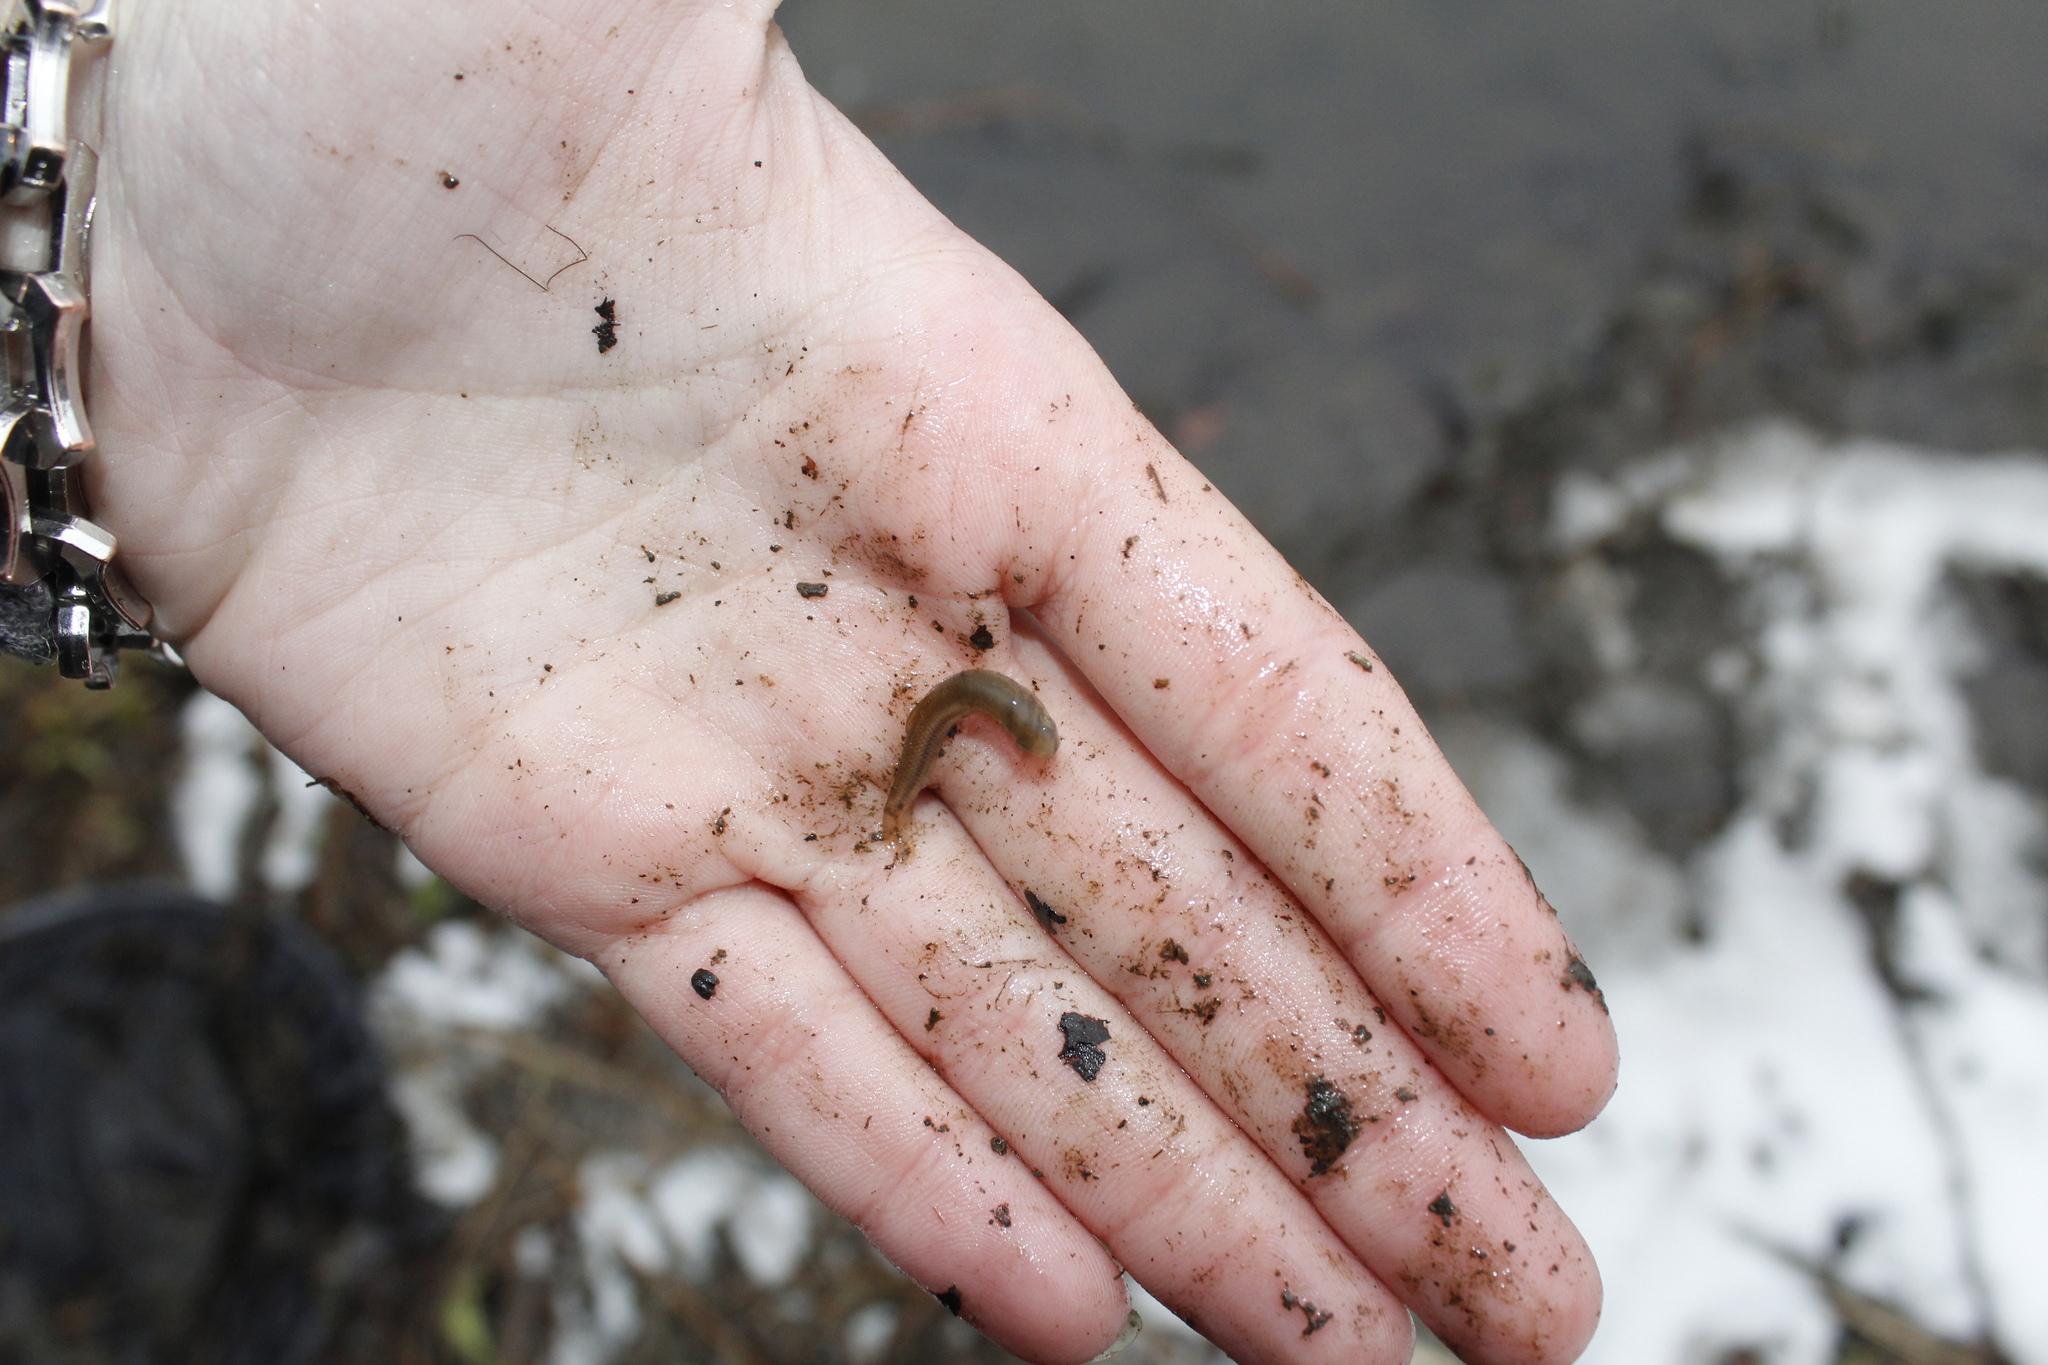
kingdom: Animalia
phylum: Chordata
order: Cypriniformes
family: Cyprinidae
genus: Pimephales
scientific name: Pimephales notatus
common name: Bluntnose minnow
